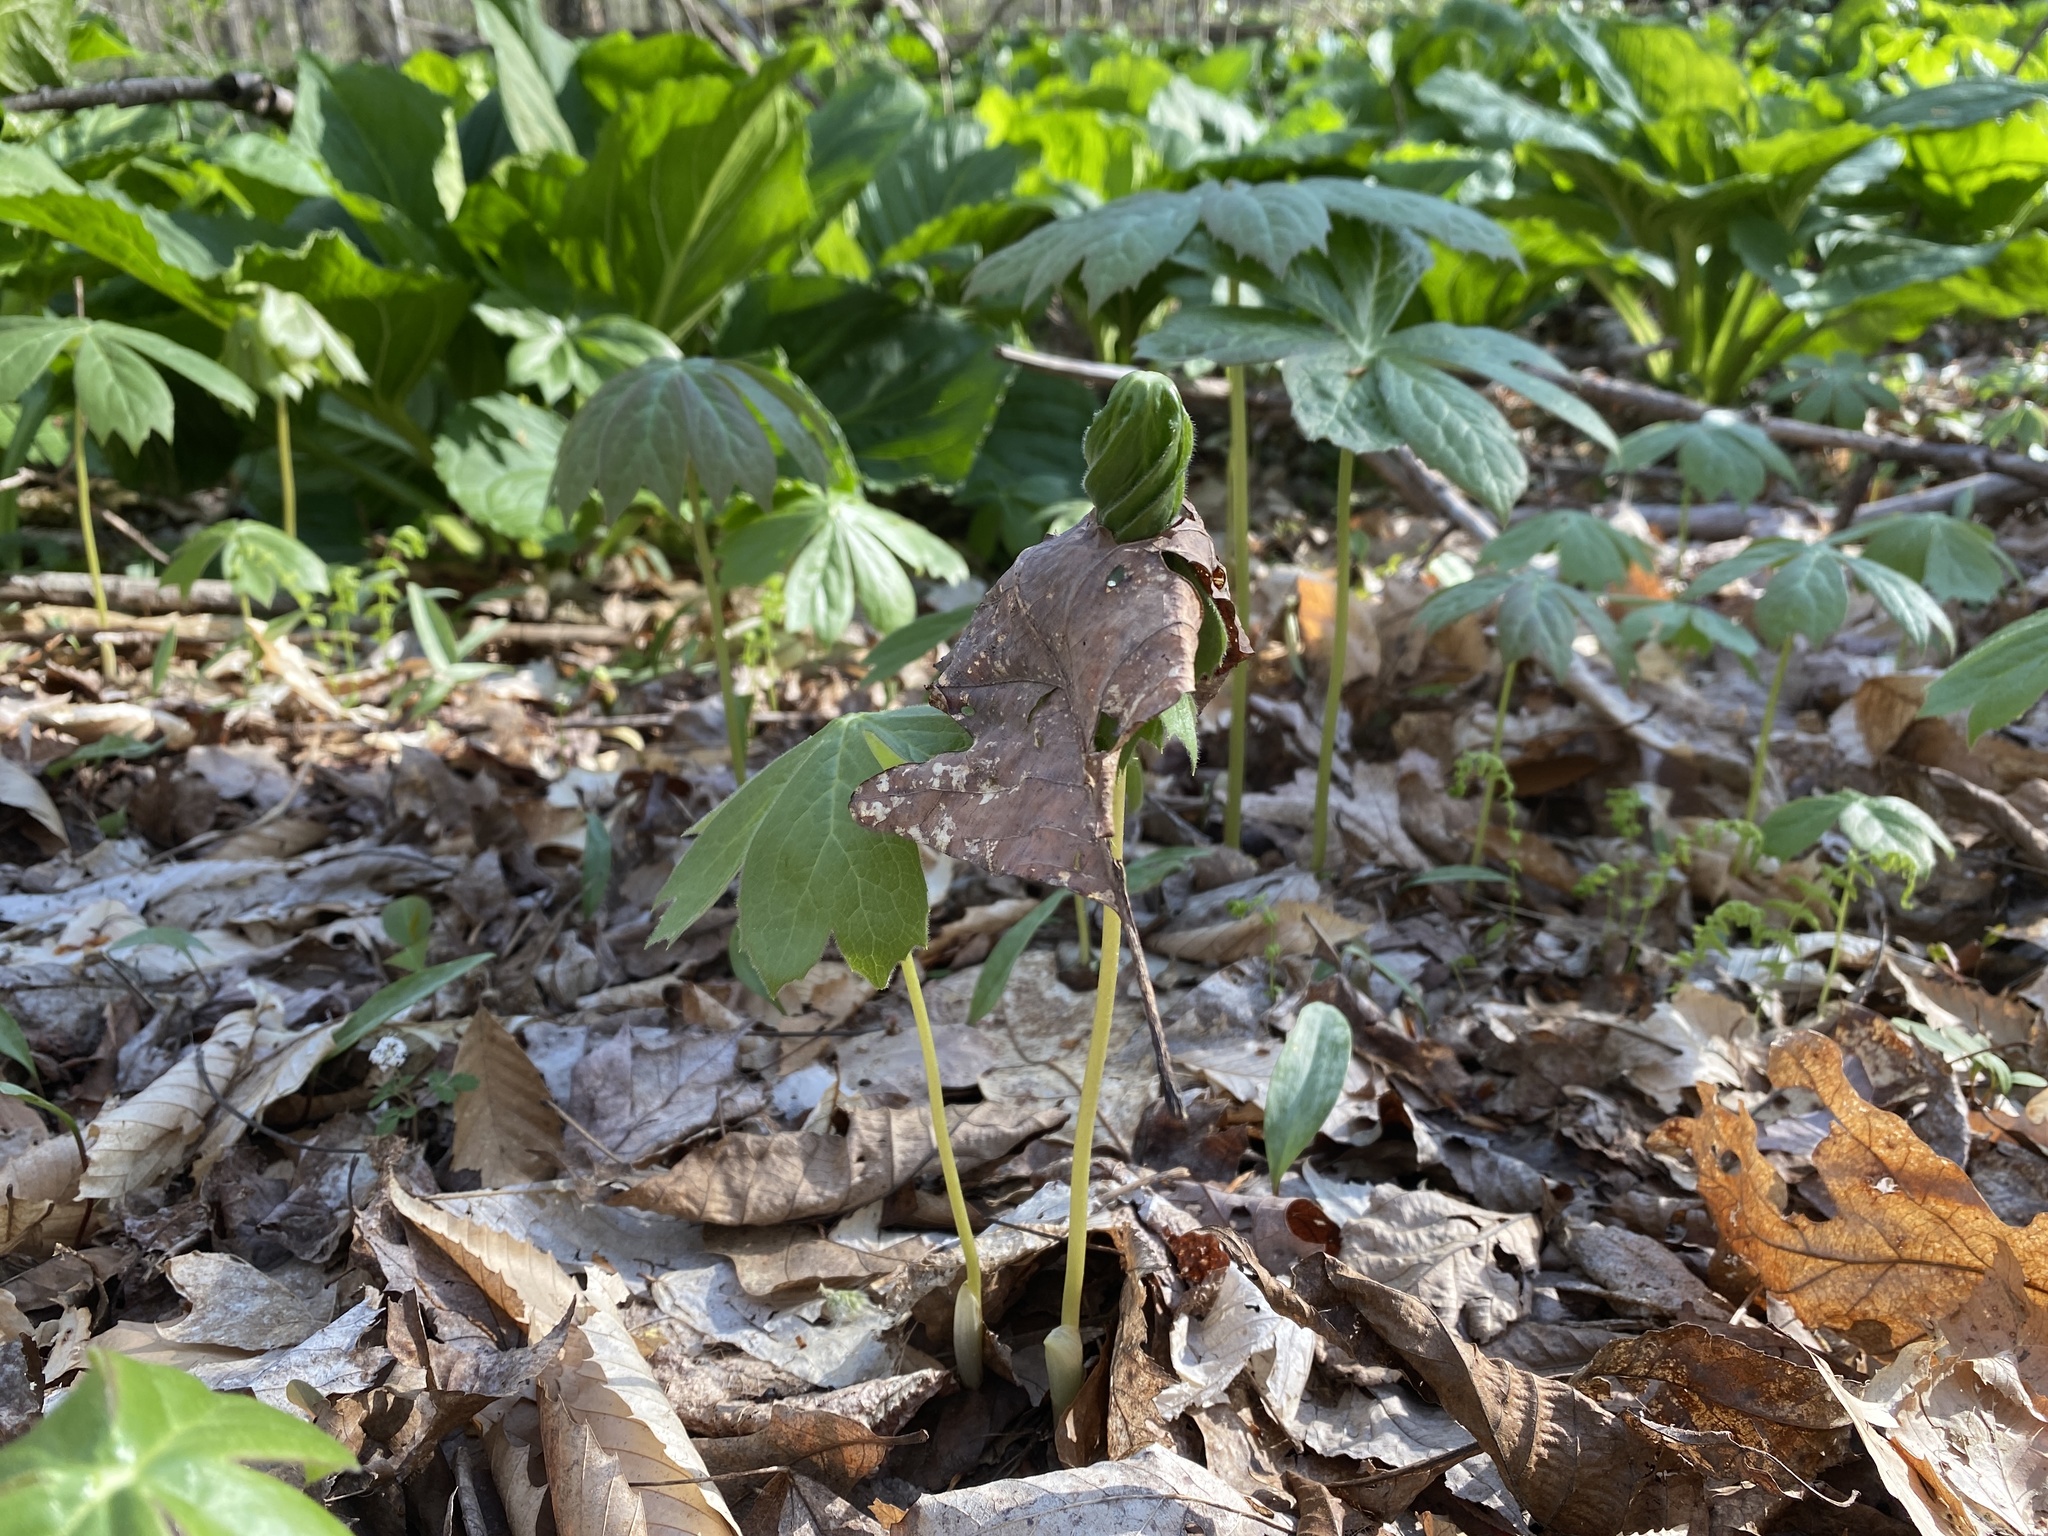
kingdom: Plantae
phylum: Tracheophyta
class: Magnoliopsida
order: Ranunculales
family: Berberidaceae
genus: Podophyllum
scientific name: Podophyllum peltatum
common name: Wild mandrake
